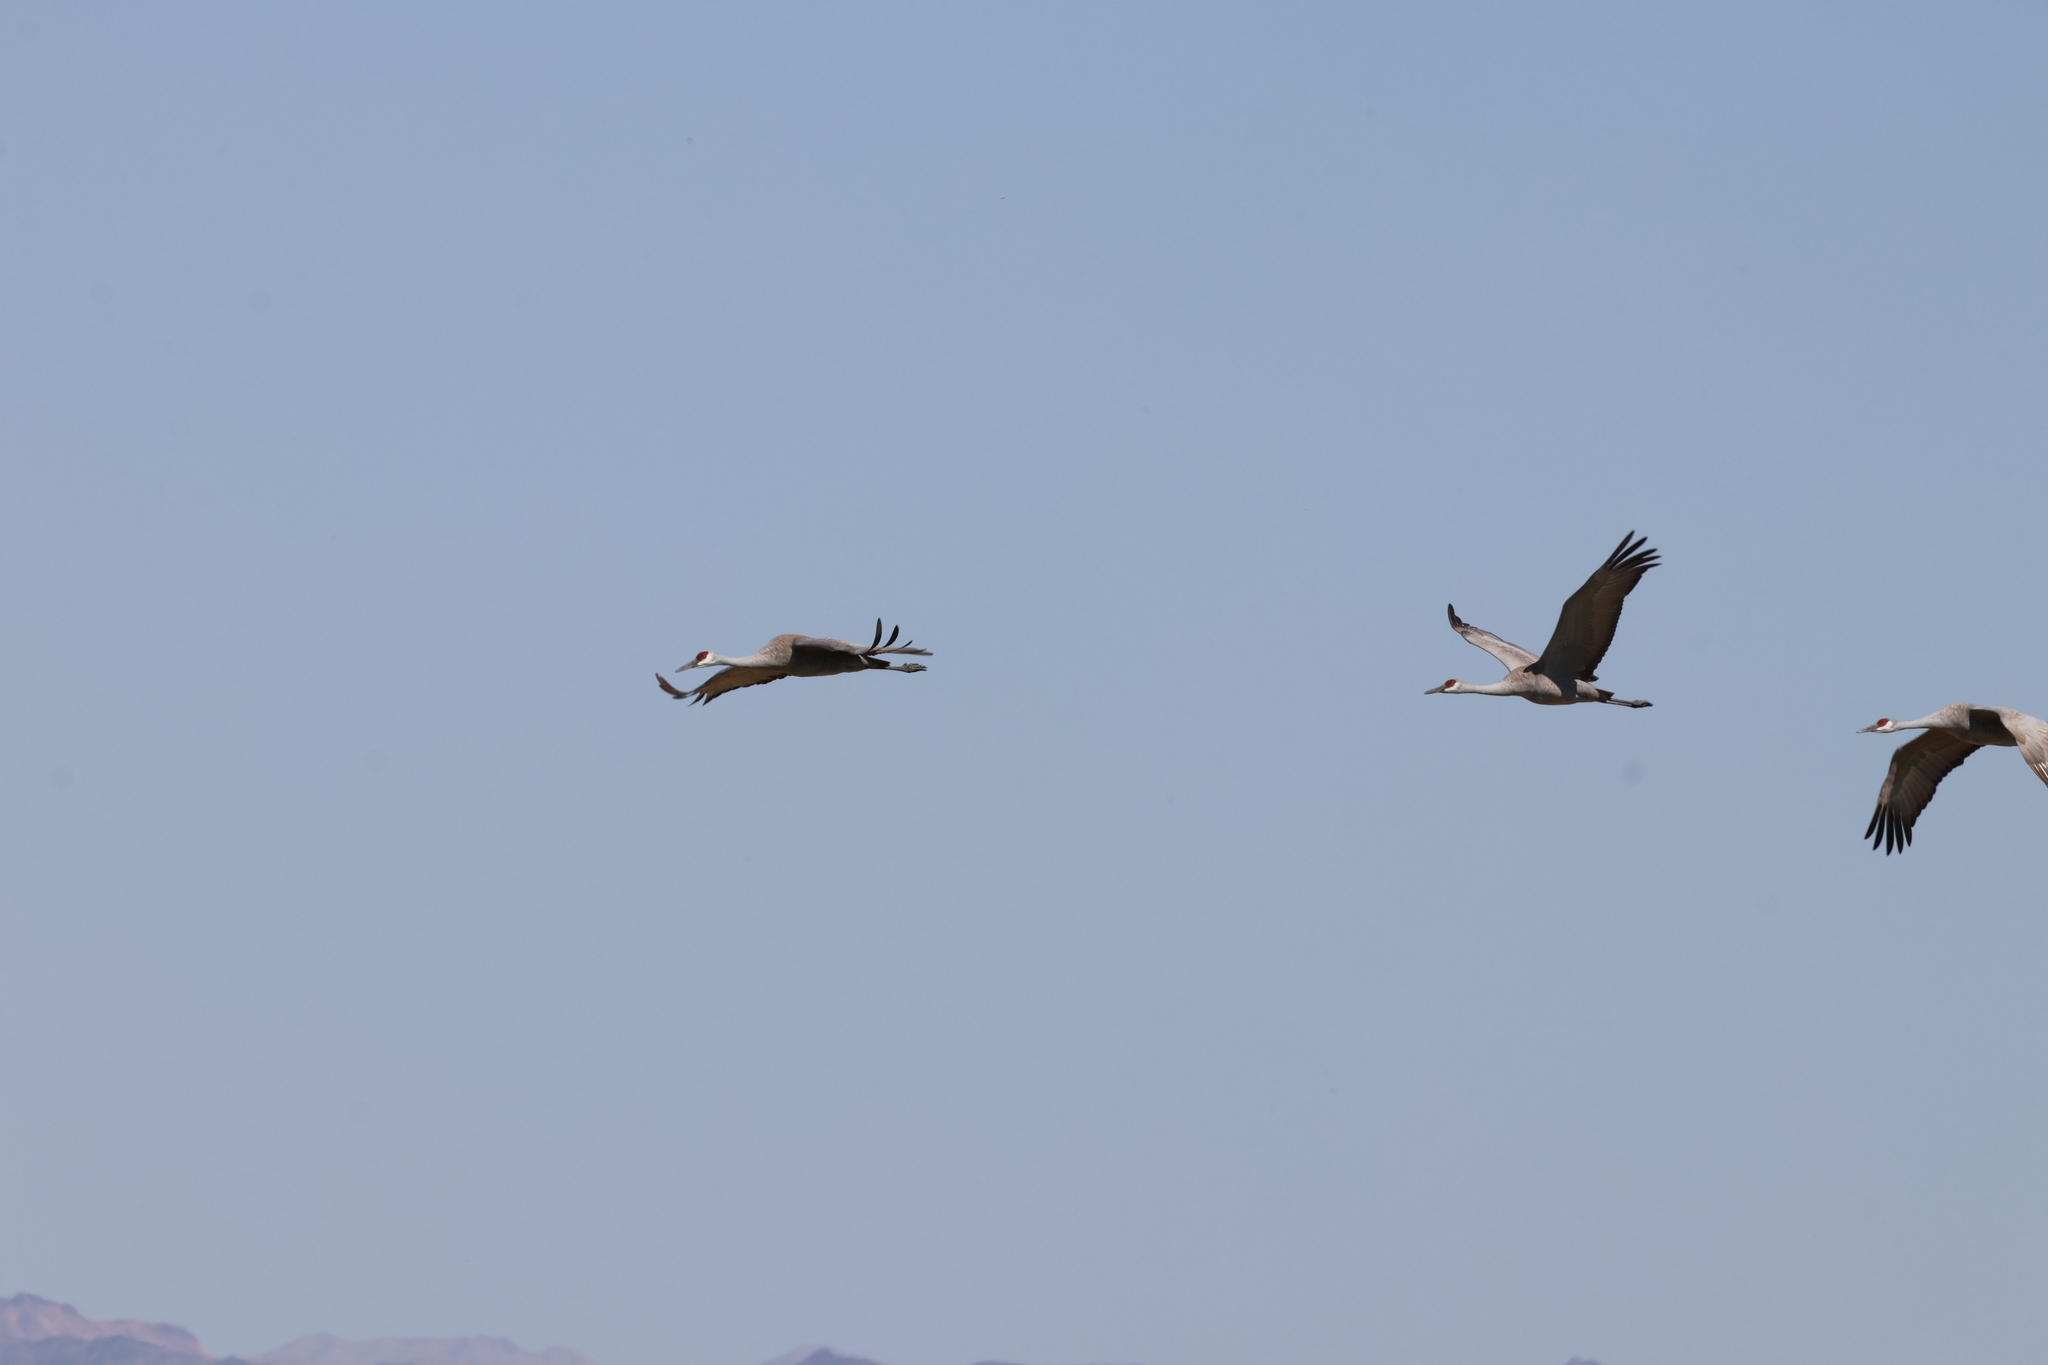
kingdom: Animalia
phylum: Chordata
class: Aves
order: Gruiformes
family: Gruidae
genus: Grus
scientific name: Grus canadensis
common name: Sandhill crane
